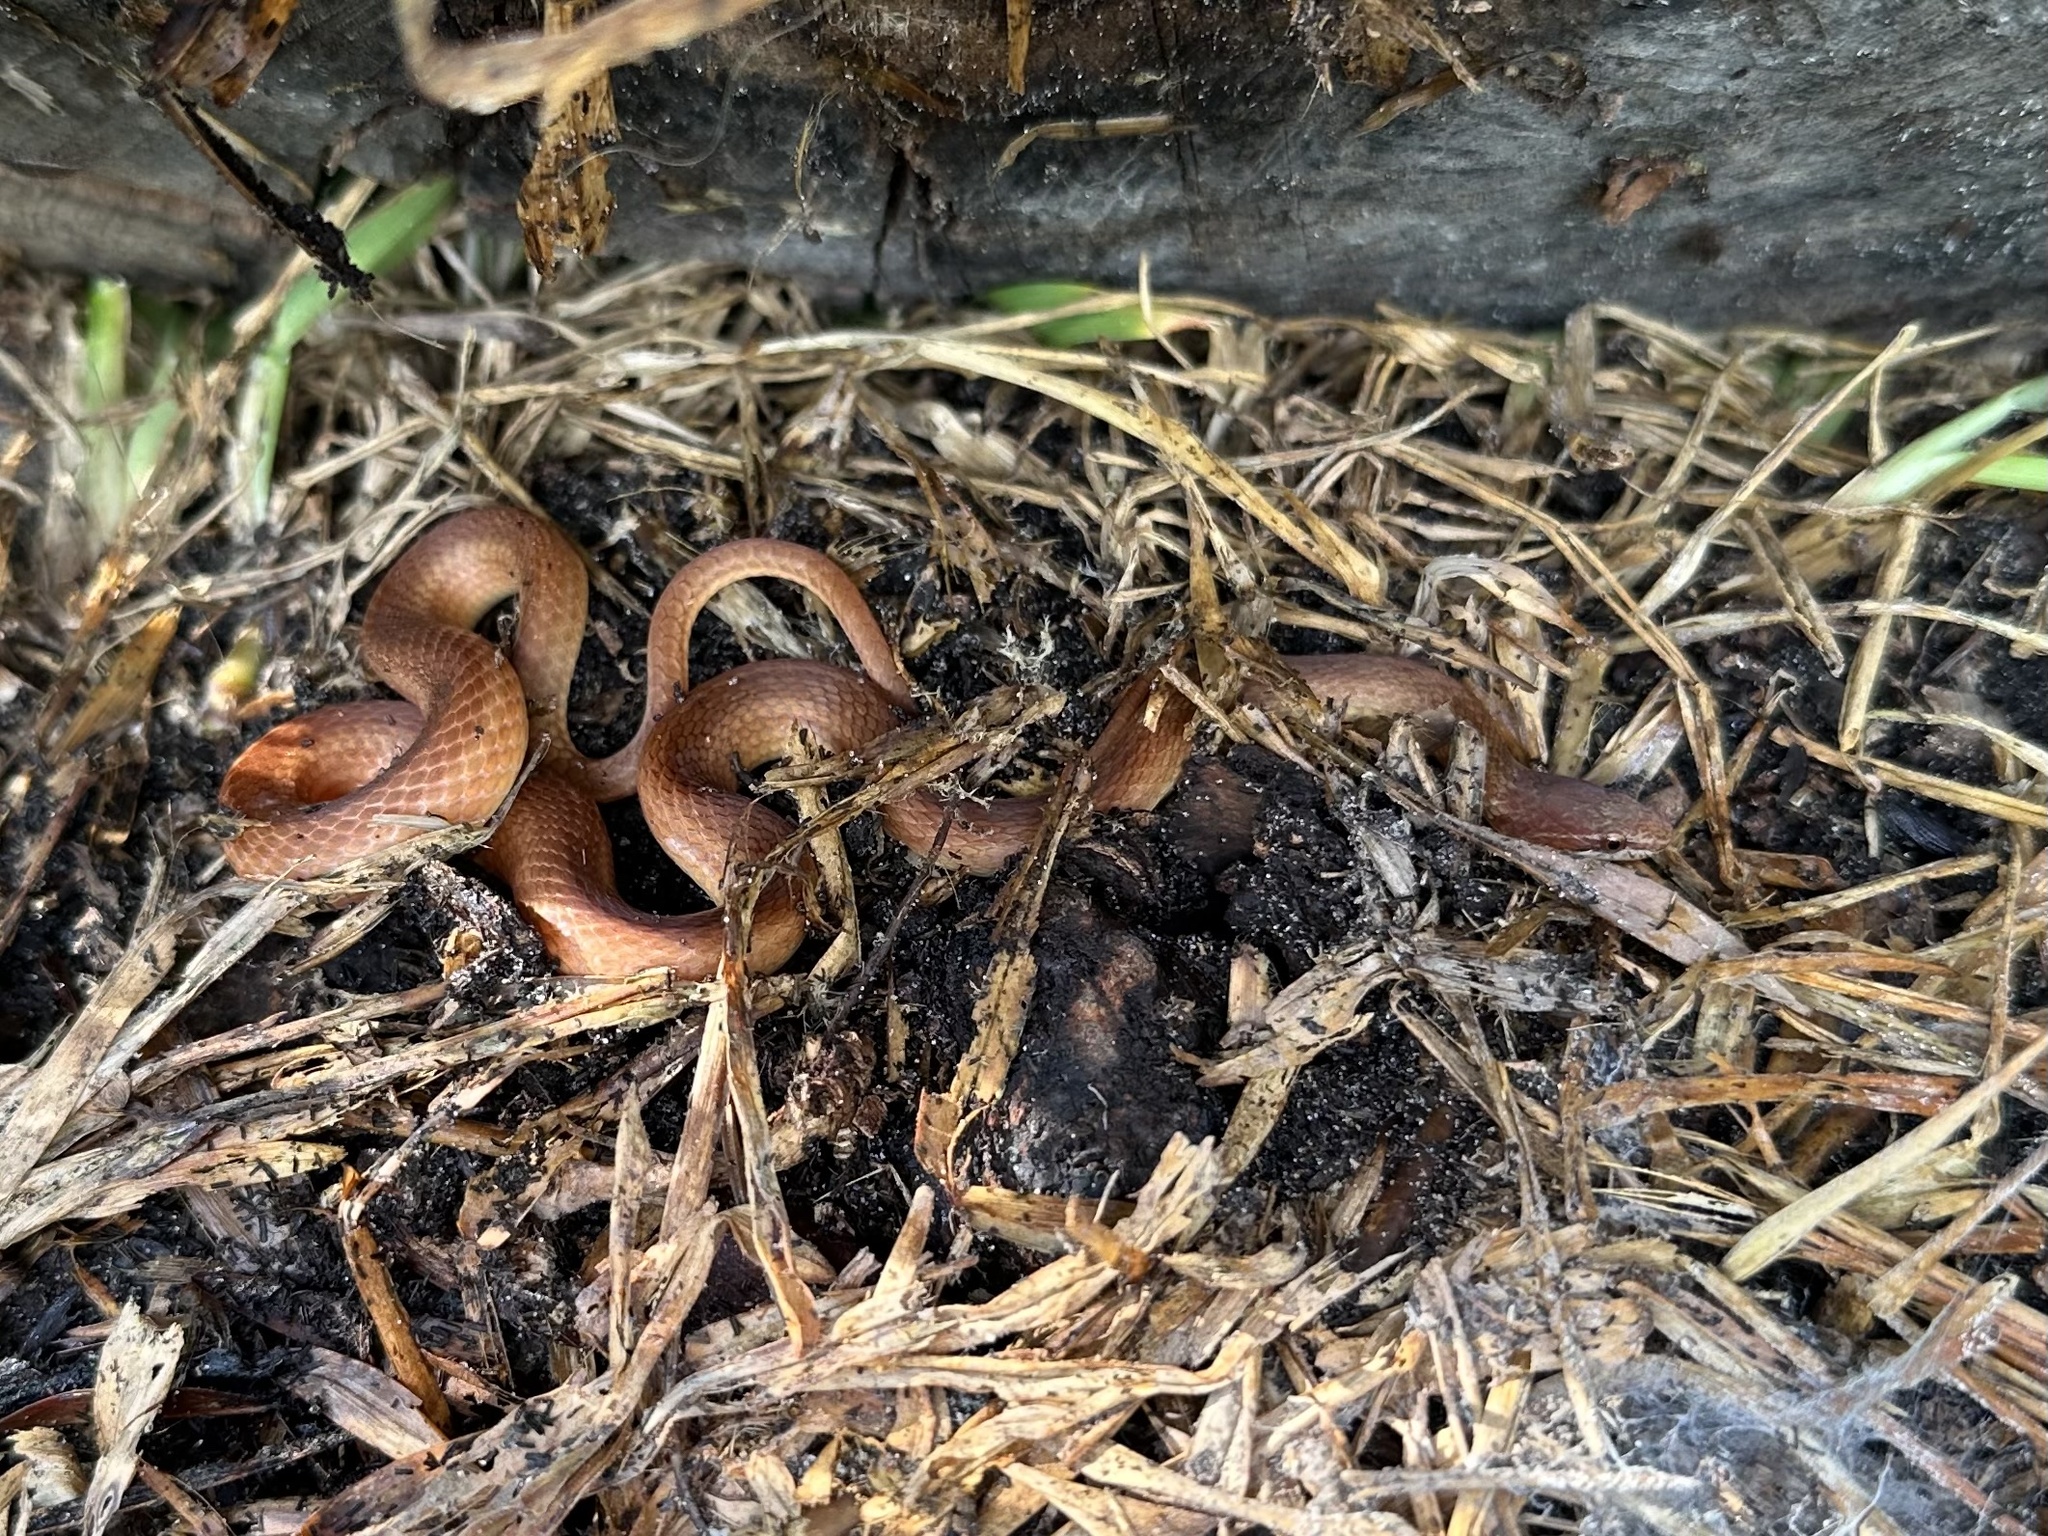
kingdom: Animalia
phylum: Chordata
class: Squamata
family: Colubridae
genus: Rhadinaea
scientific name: Rhadinaea flavilata
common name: Pine woods littersnake
